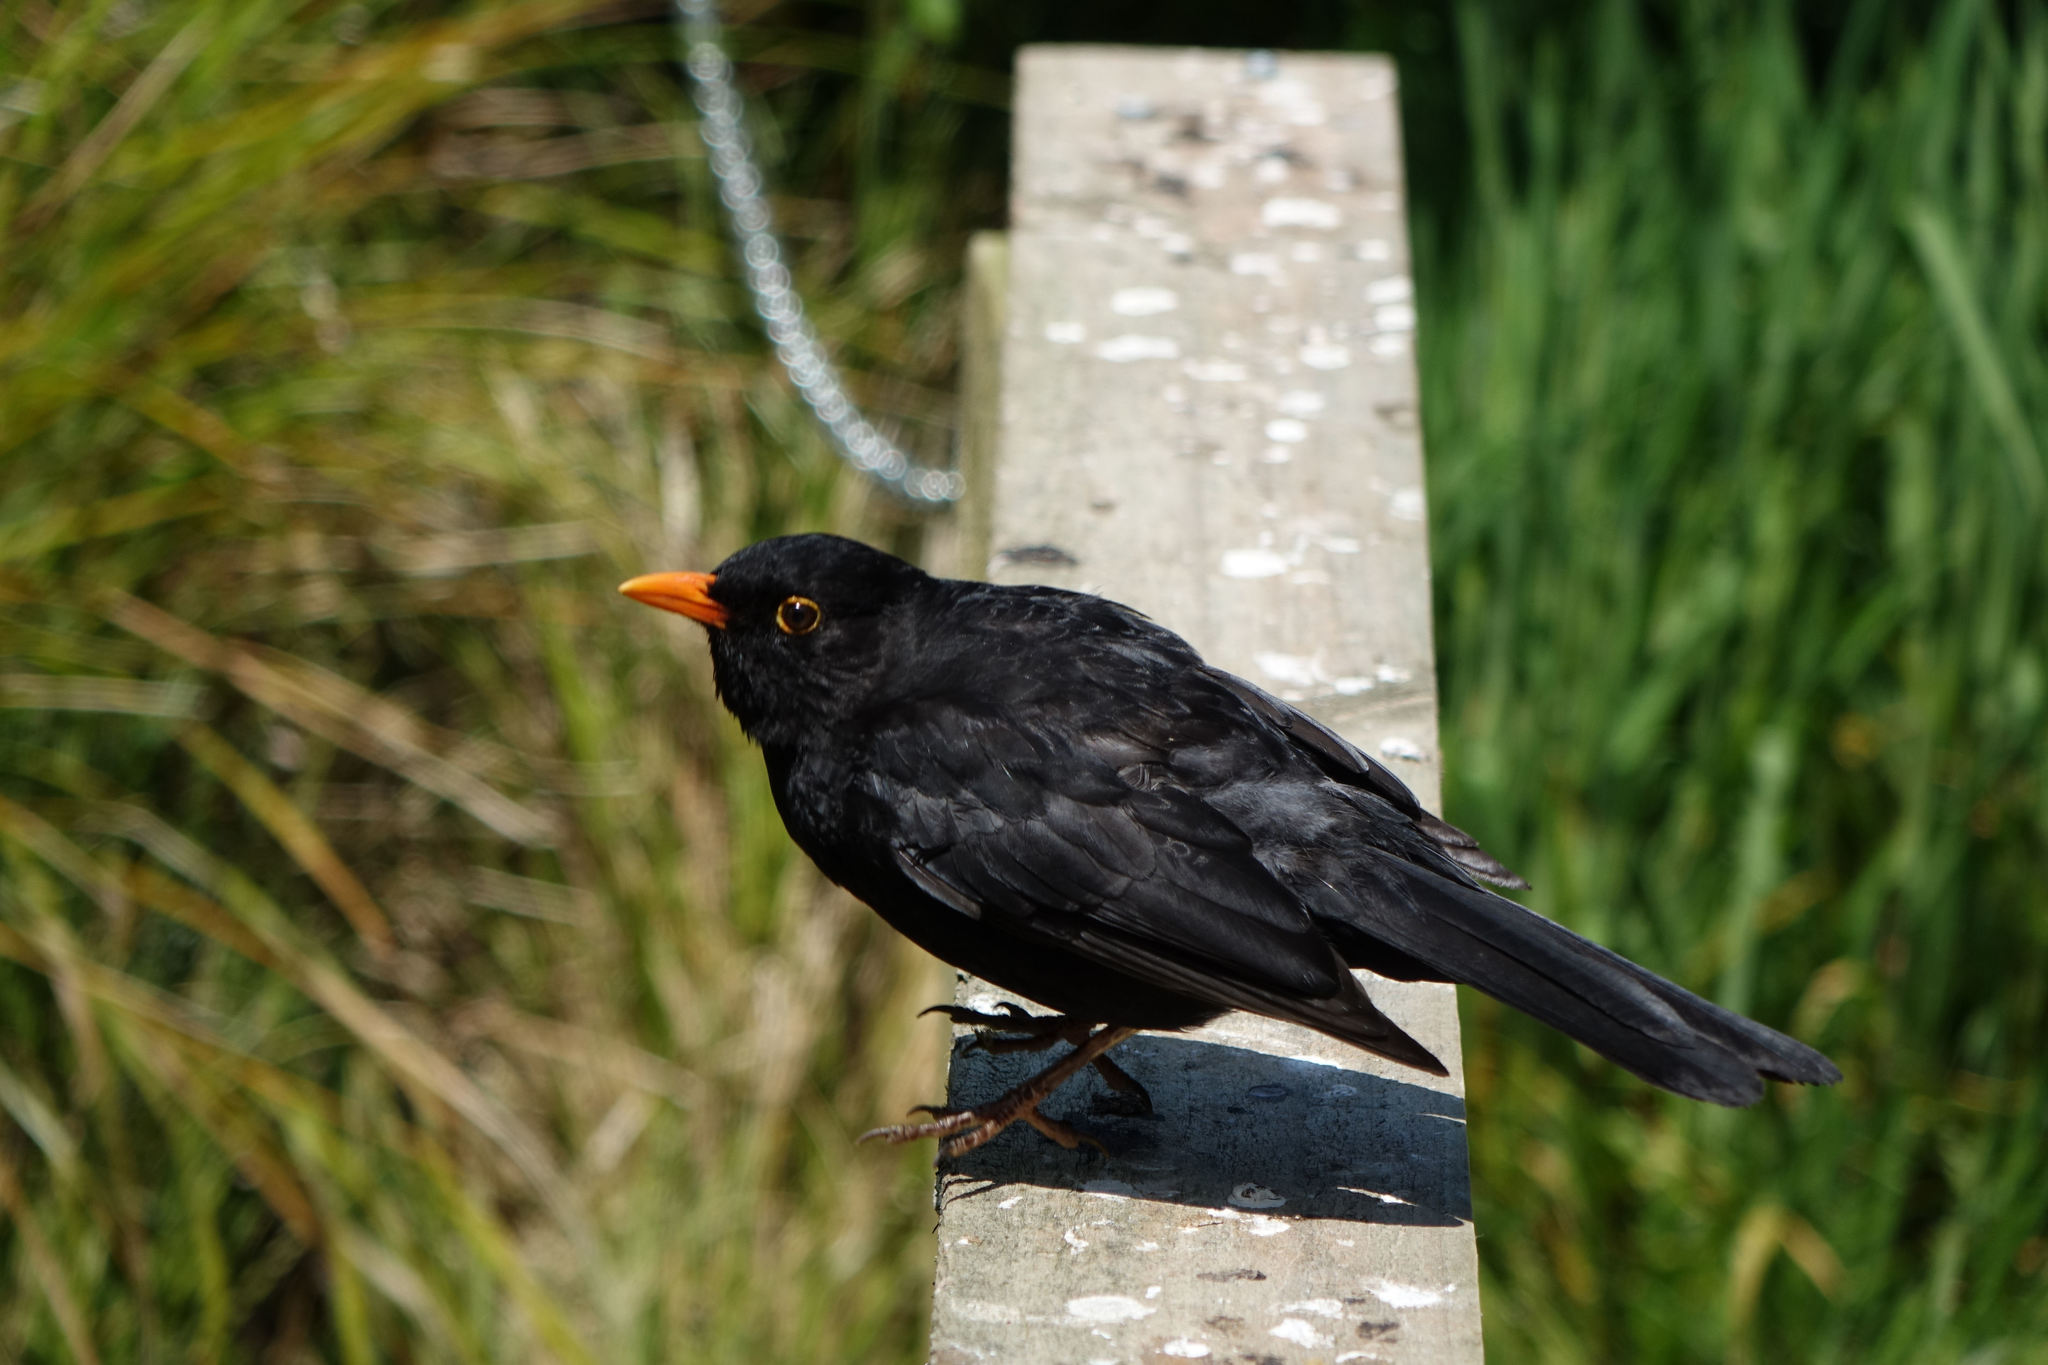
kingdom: Animalia
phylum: Chordata
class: Aves
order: Passeriformes
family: Turdidae
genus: Turdus
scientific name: Turdus merula
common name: Common blackbird
